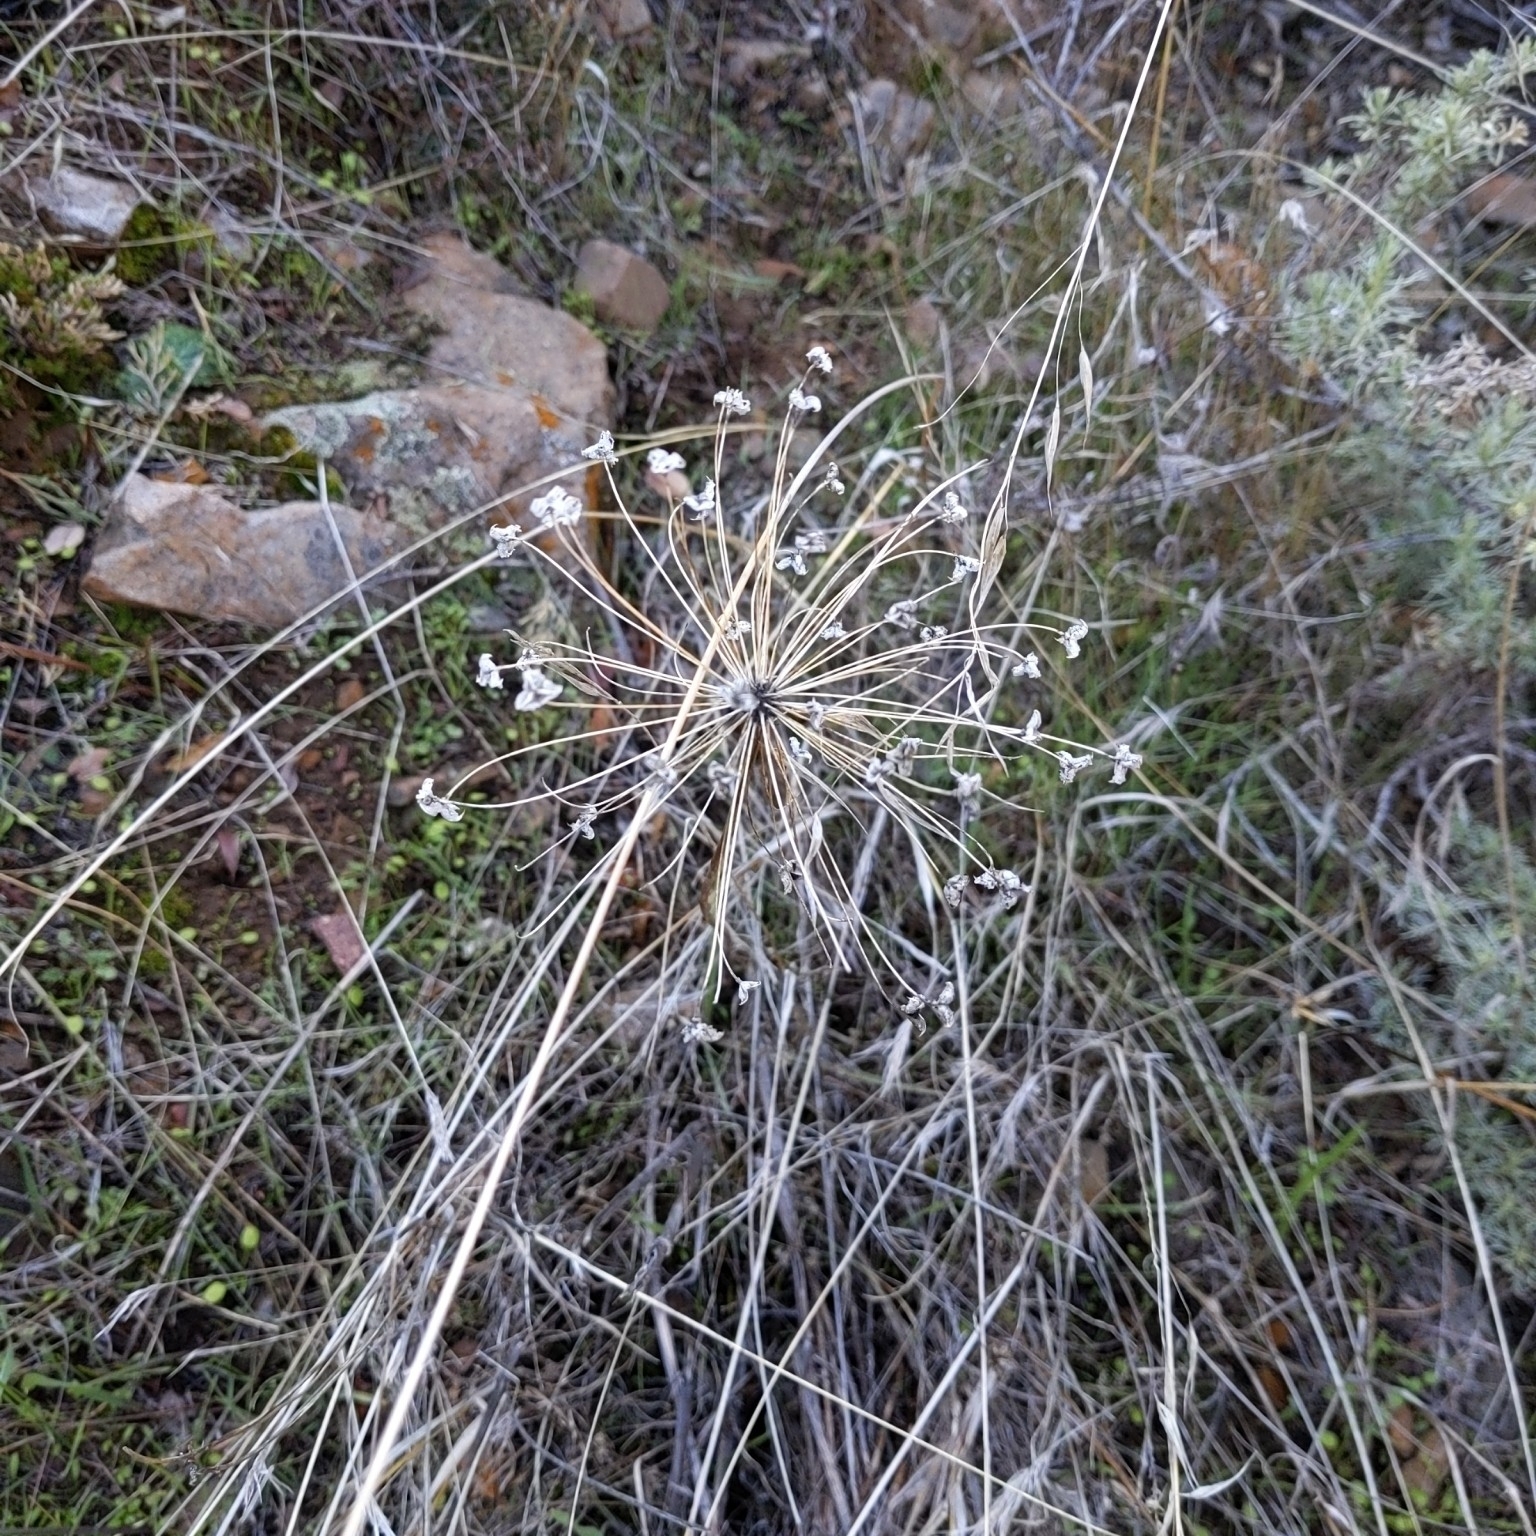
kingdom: Plantae
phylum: Tracheophyta
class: Liliopsida
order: Asparagales
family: Asparagaceae
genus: Bloomeria
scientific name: Bloomeria crocea
